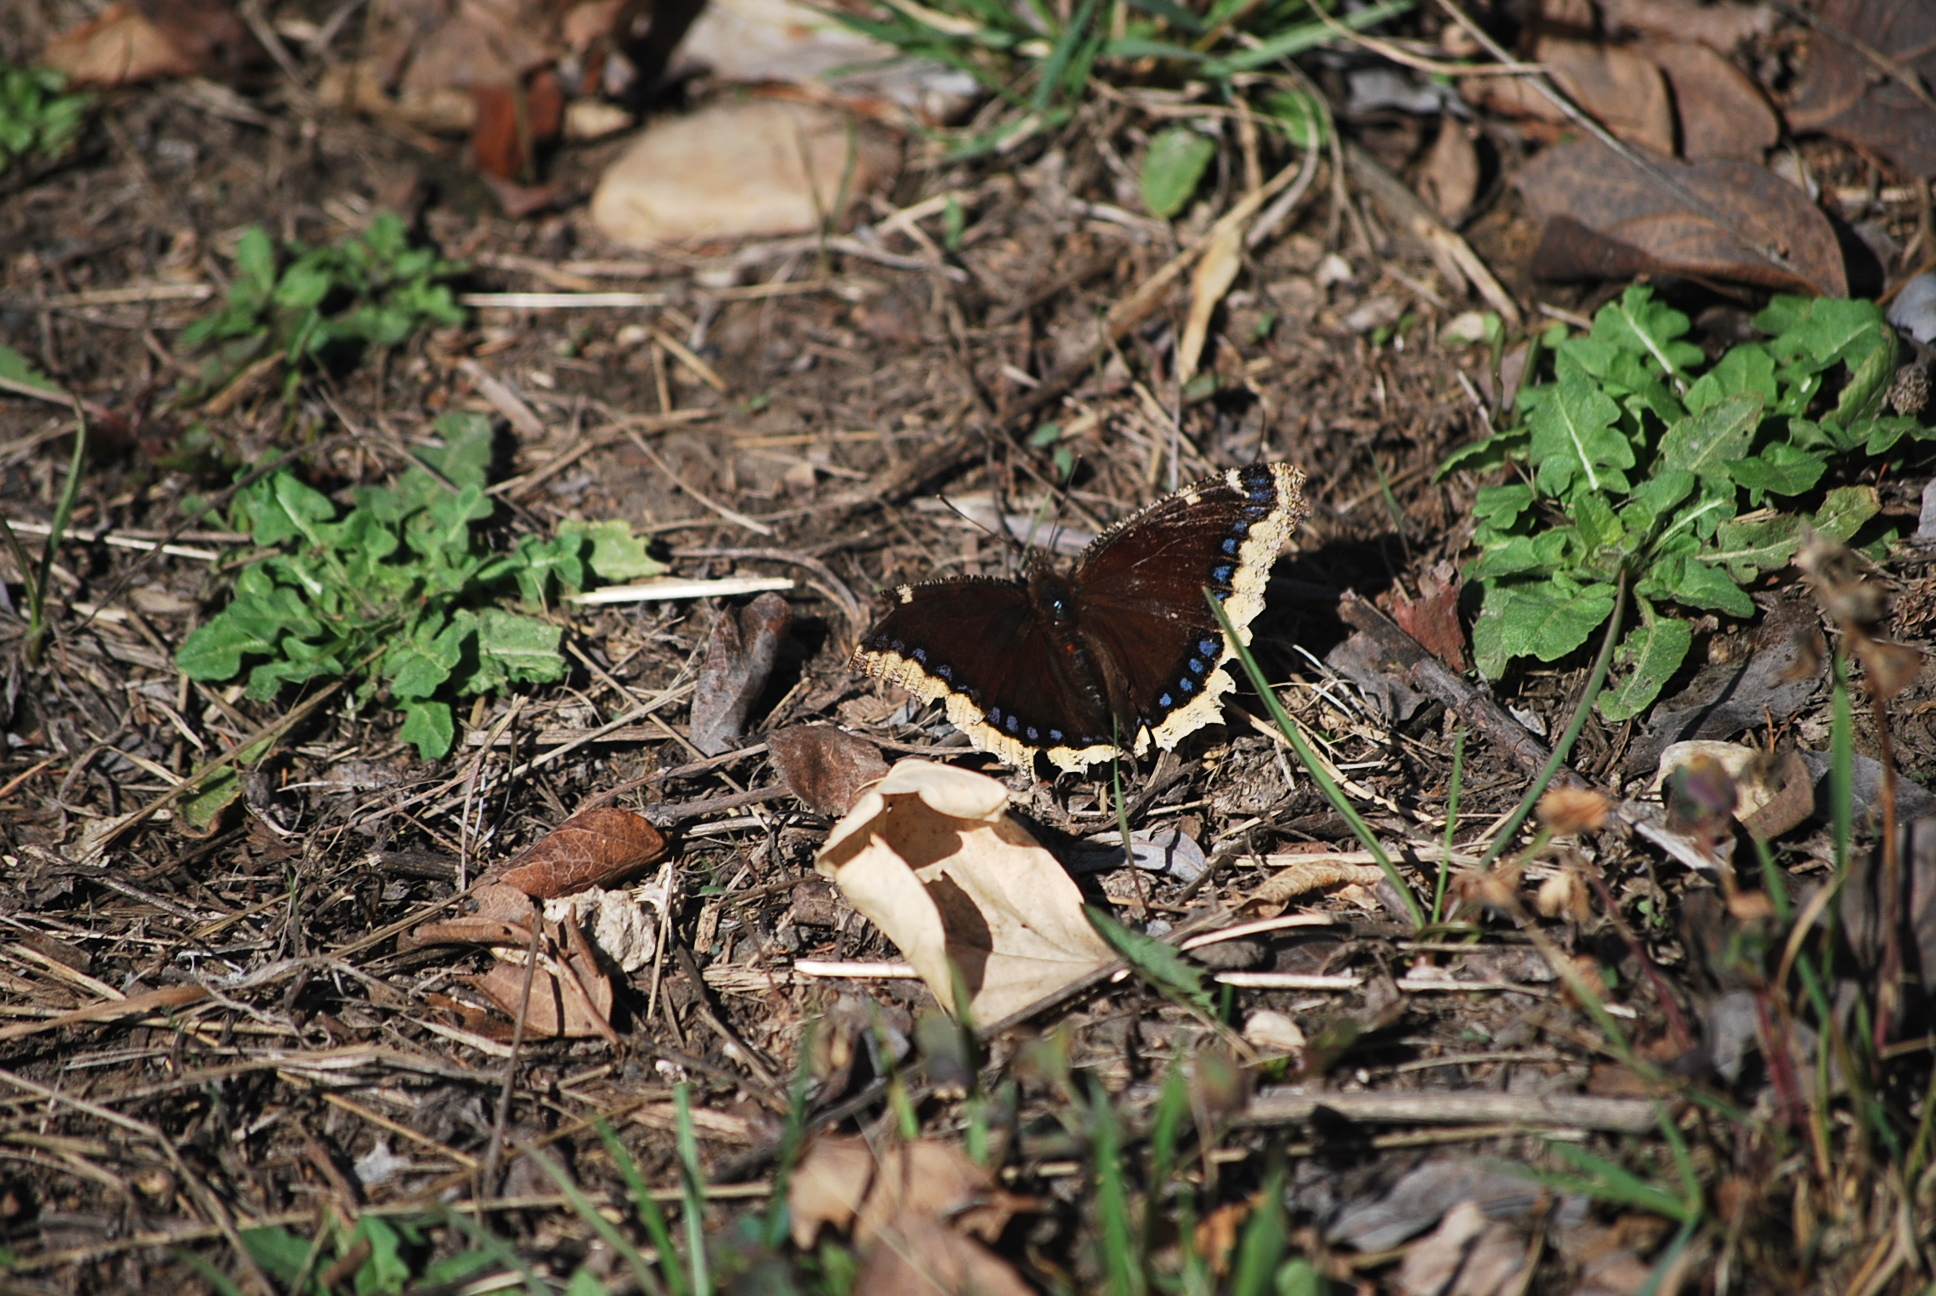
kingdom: Animalia
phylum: Arthropoda
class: Insecta
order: Lepidoptera
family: Nymphalidae
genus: Nymphalis
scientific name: Nymphalis antiopa
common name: Camberwell beauty
